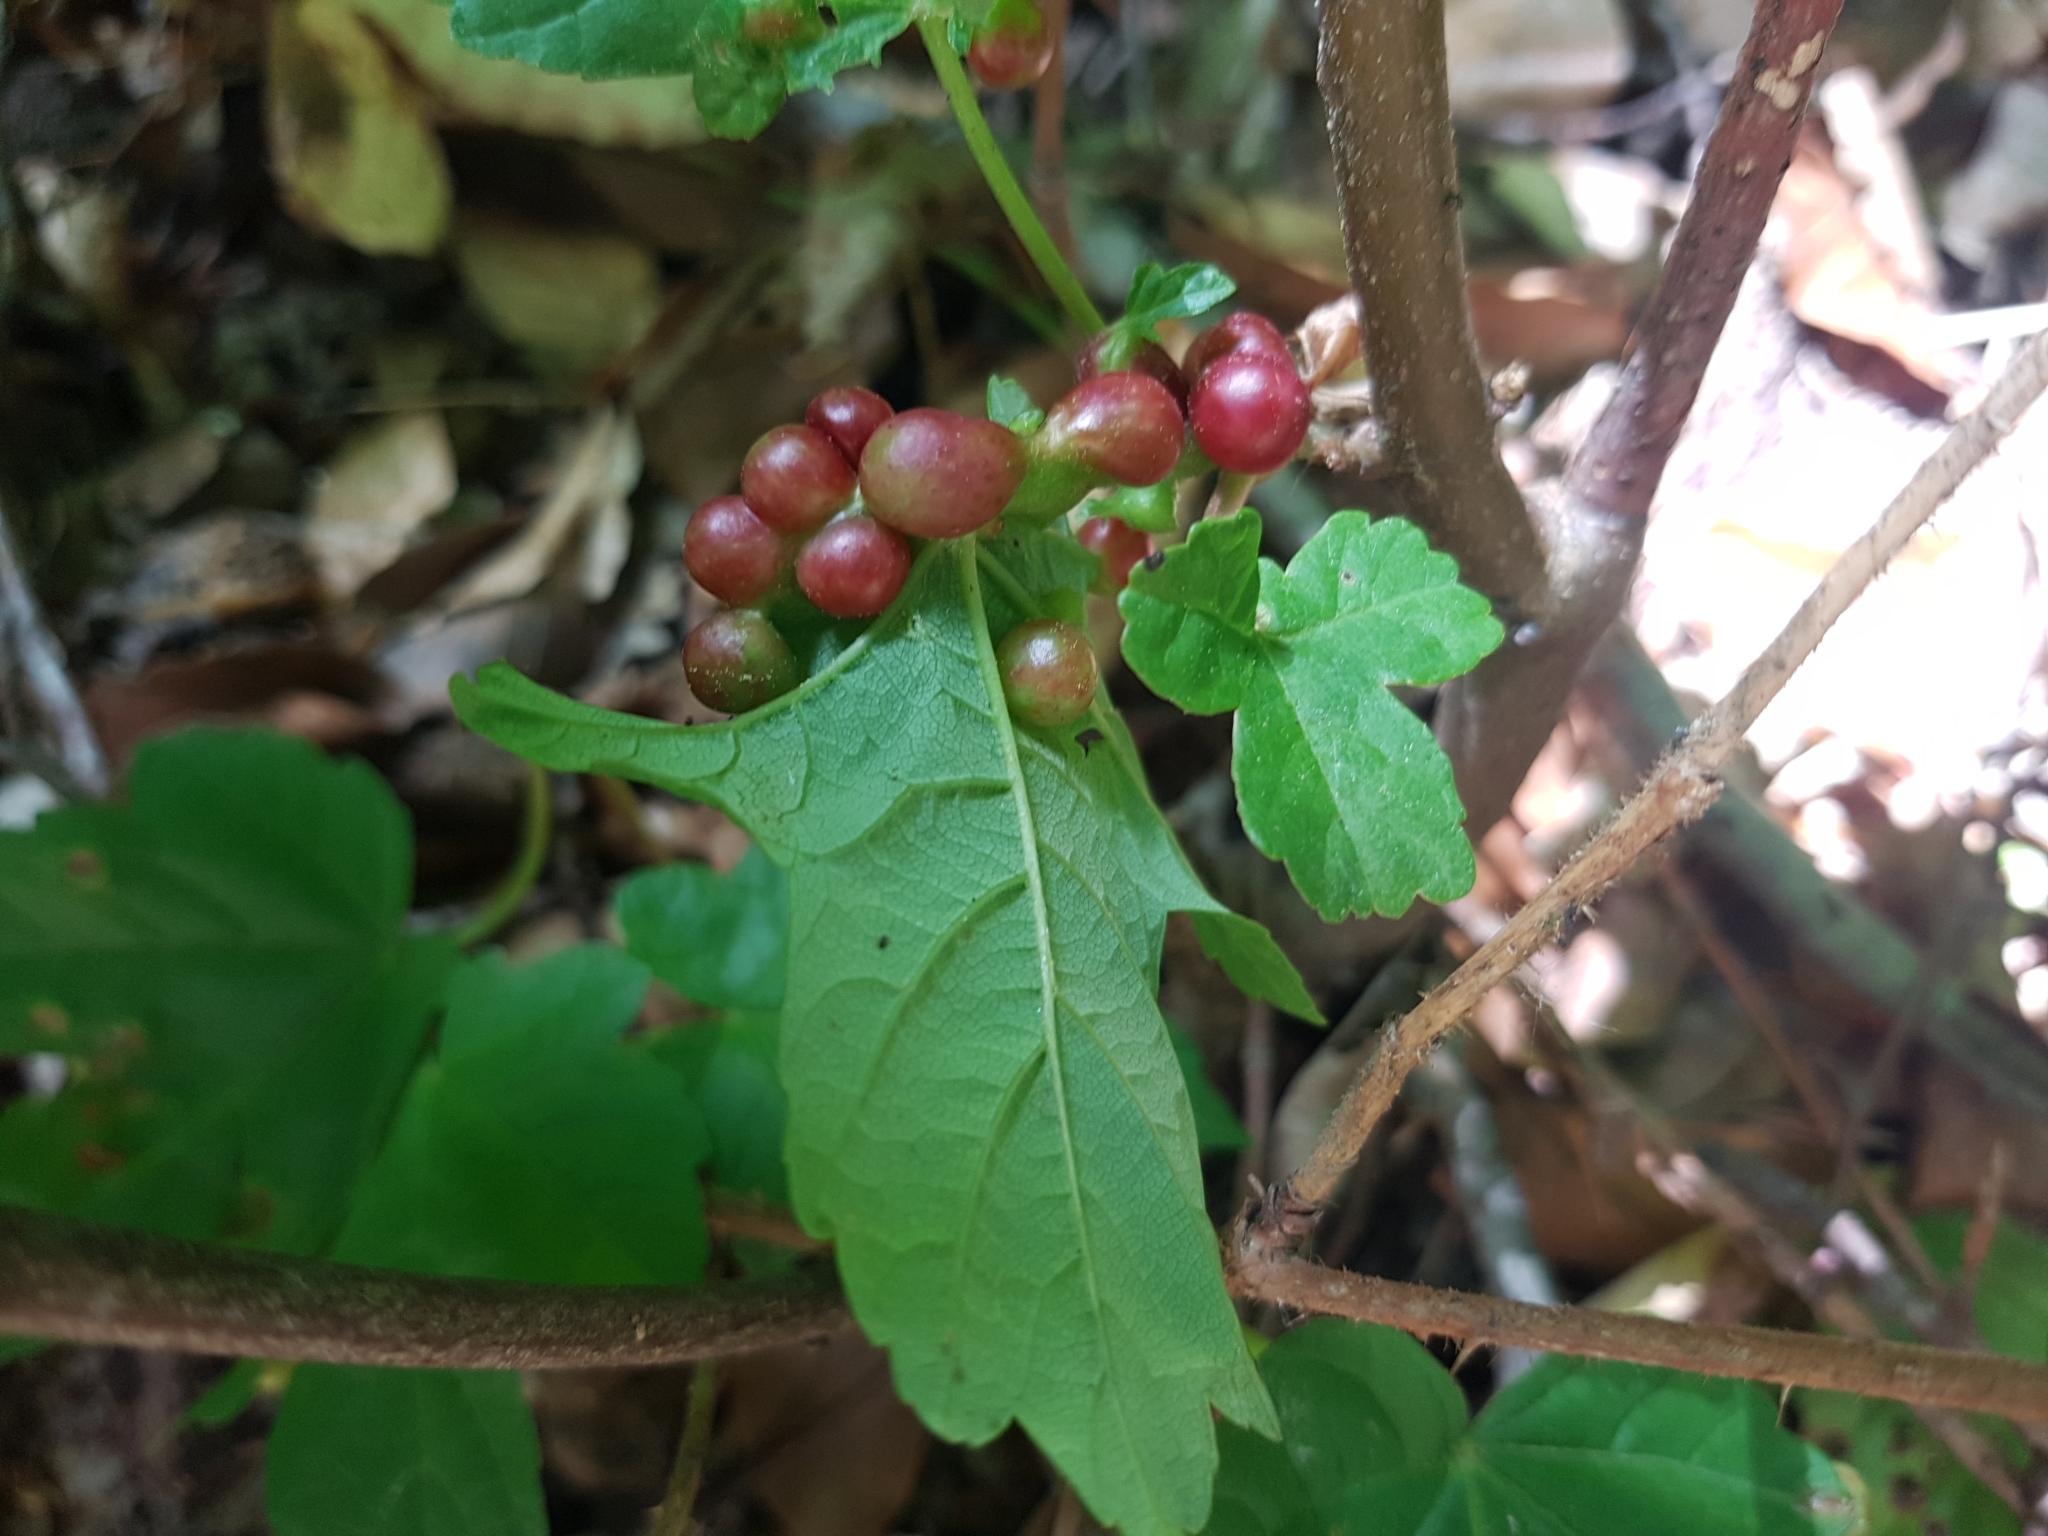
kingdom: Animalia
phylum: Arthropoda
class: Insecta
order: Hymenoptera
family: Cynipidae
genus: Pediaspis
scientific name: Pediaspis aceris
